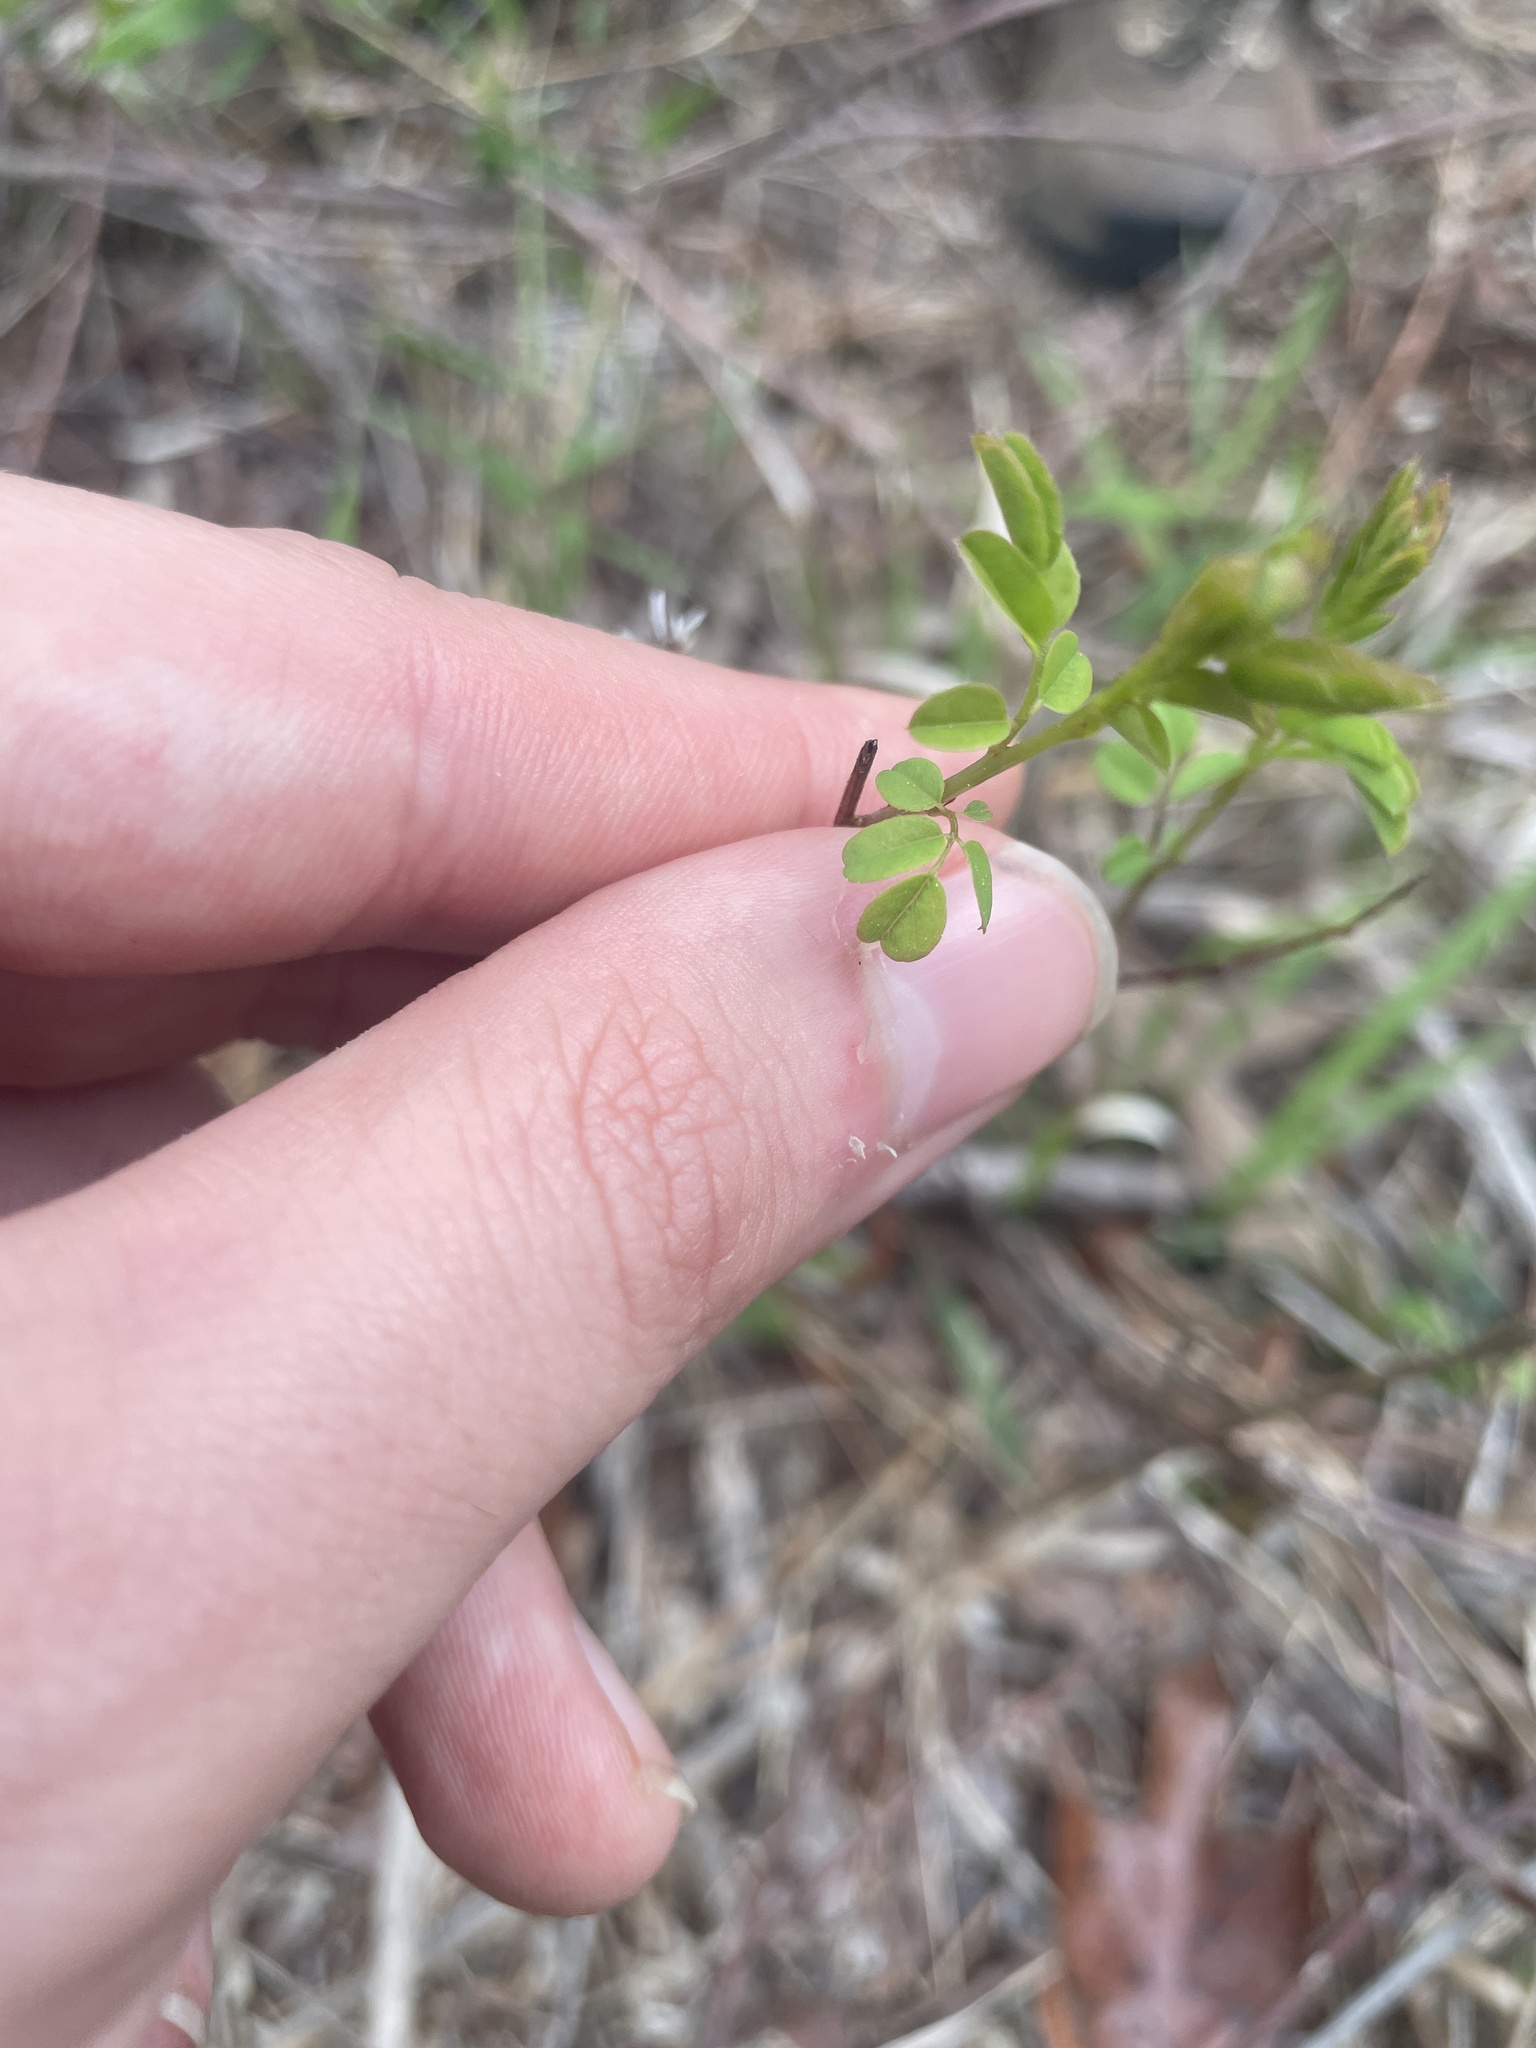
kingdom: Plantae
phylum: Tracheophyta
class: Magnoliopsida
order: Fabales
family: Fabaceae
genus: Amorpha
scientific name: Amorpha georgiana
